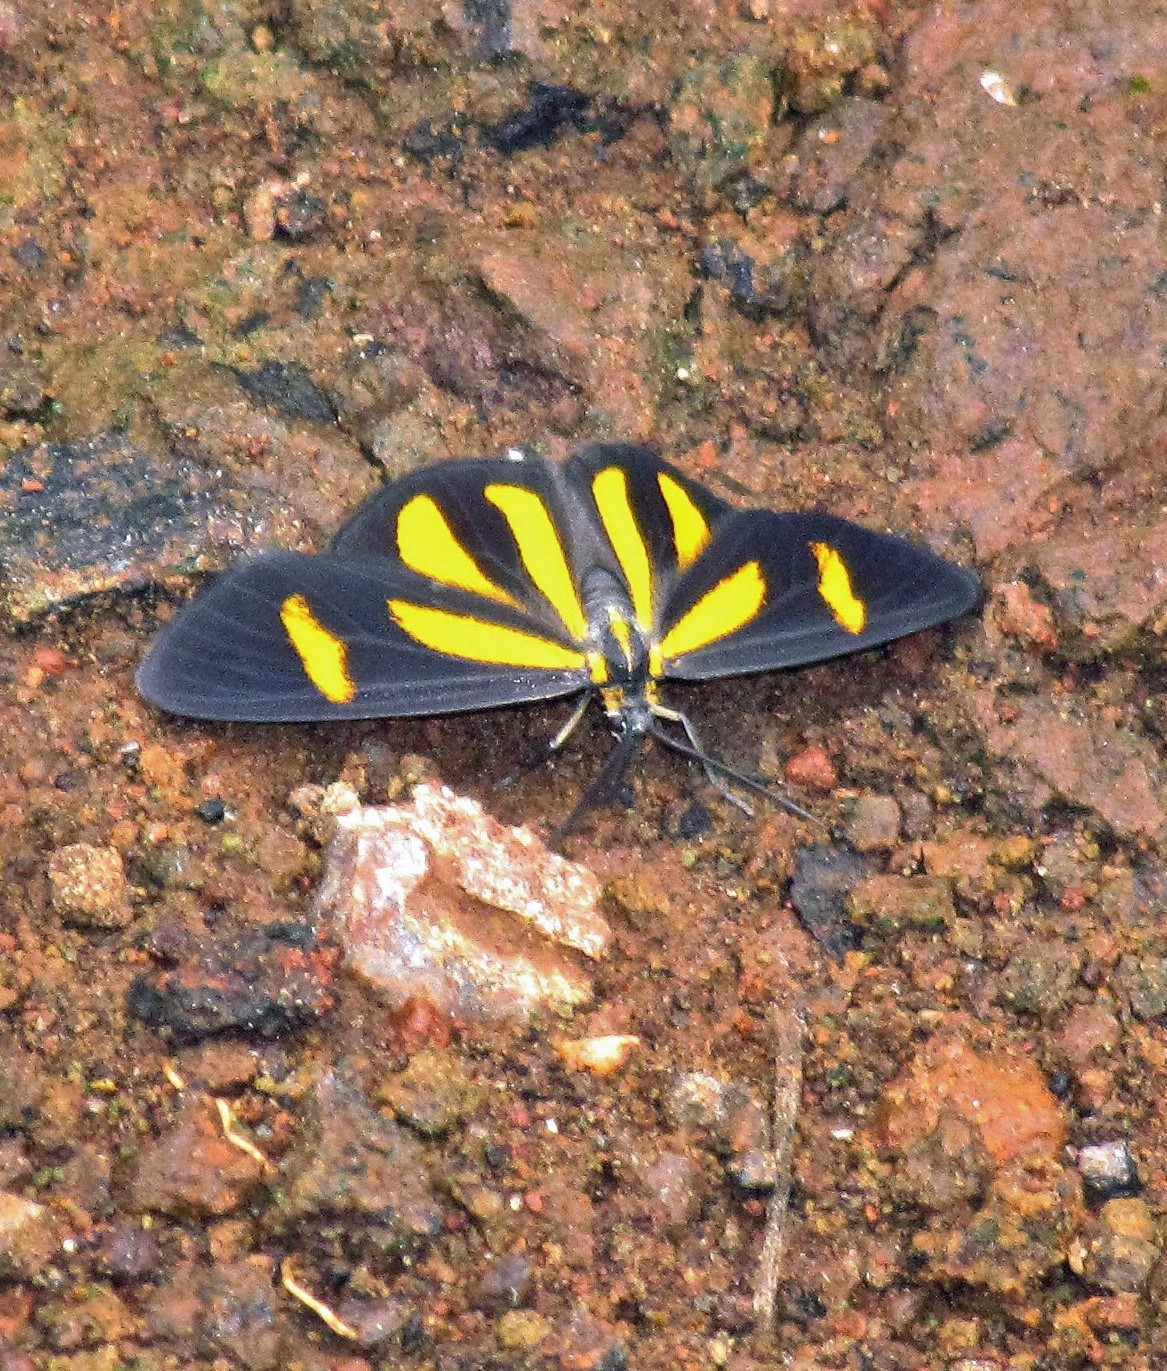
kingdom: Animalia
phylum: Arthropoda
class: Insecta
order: Lepidoptera
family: Geometridae
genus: Cyllopoda
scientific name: Cyllopoda claudicula
